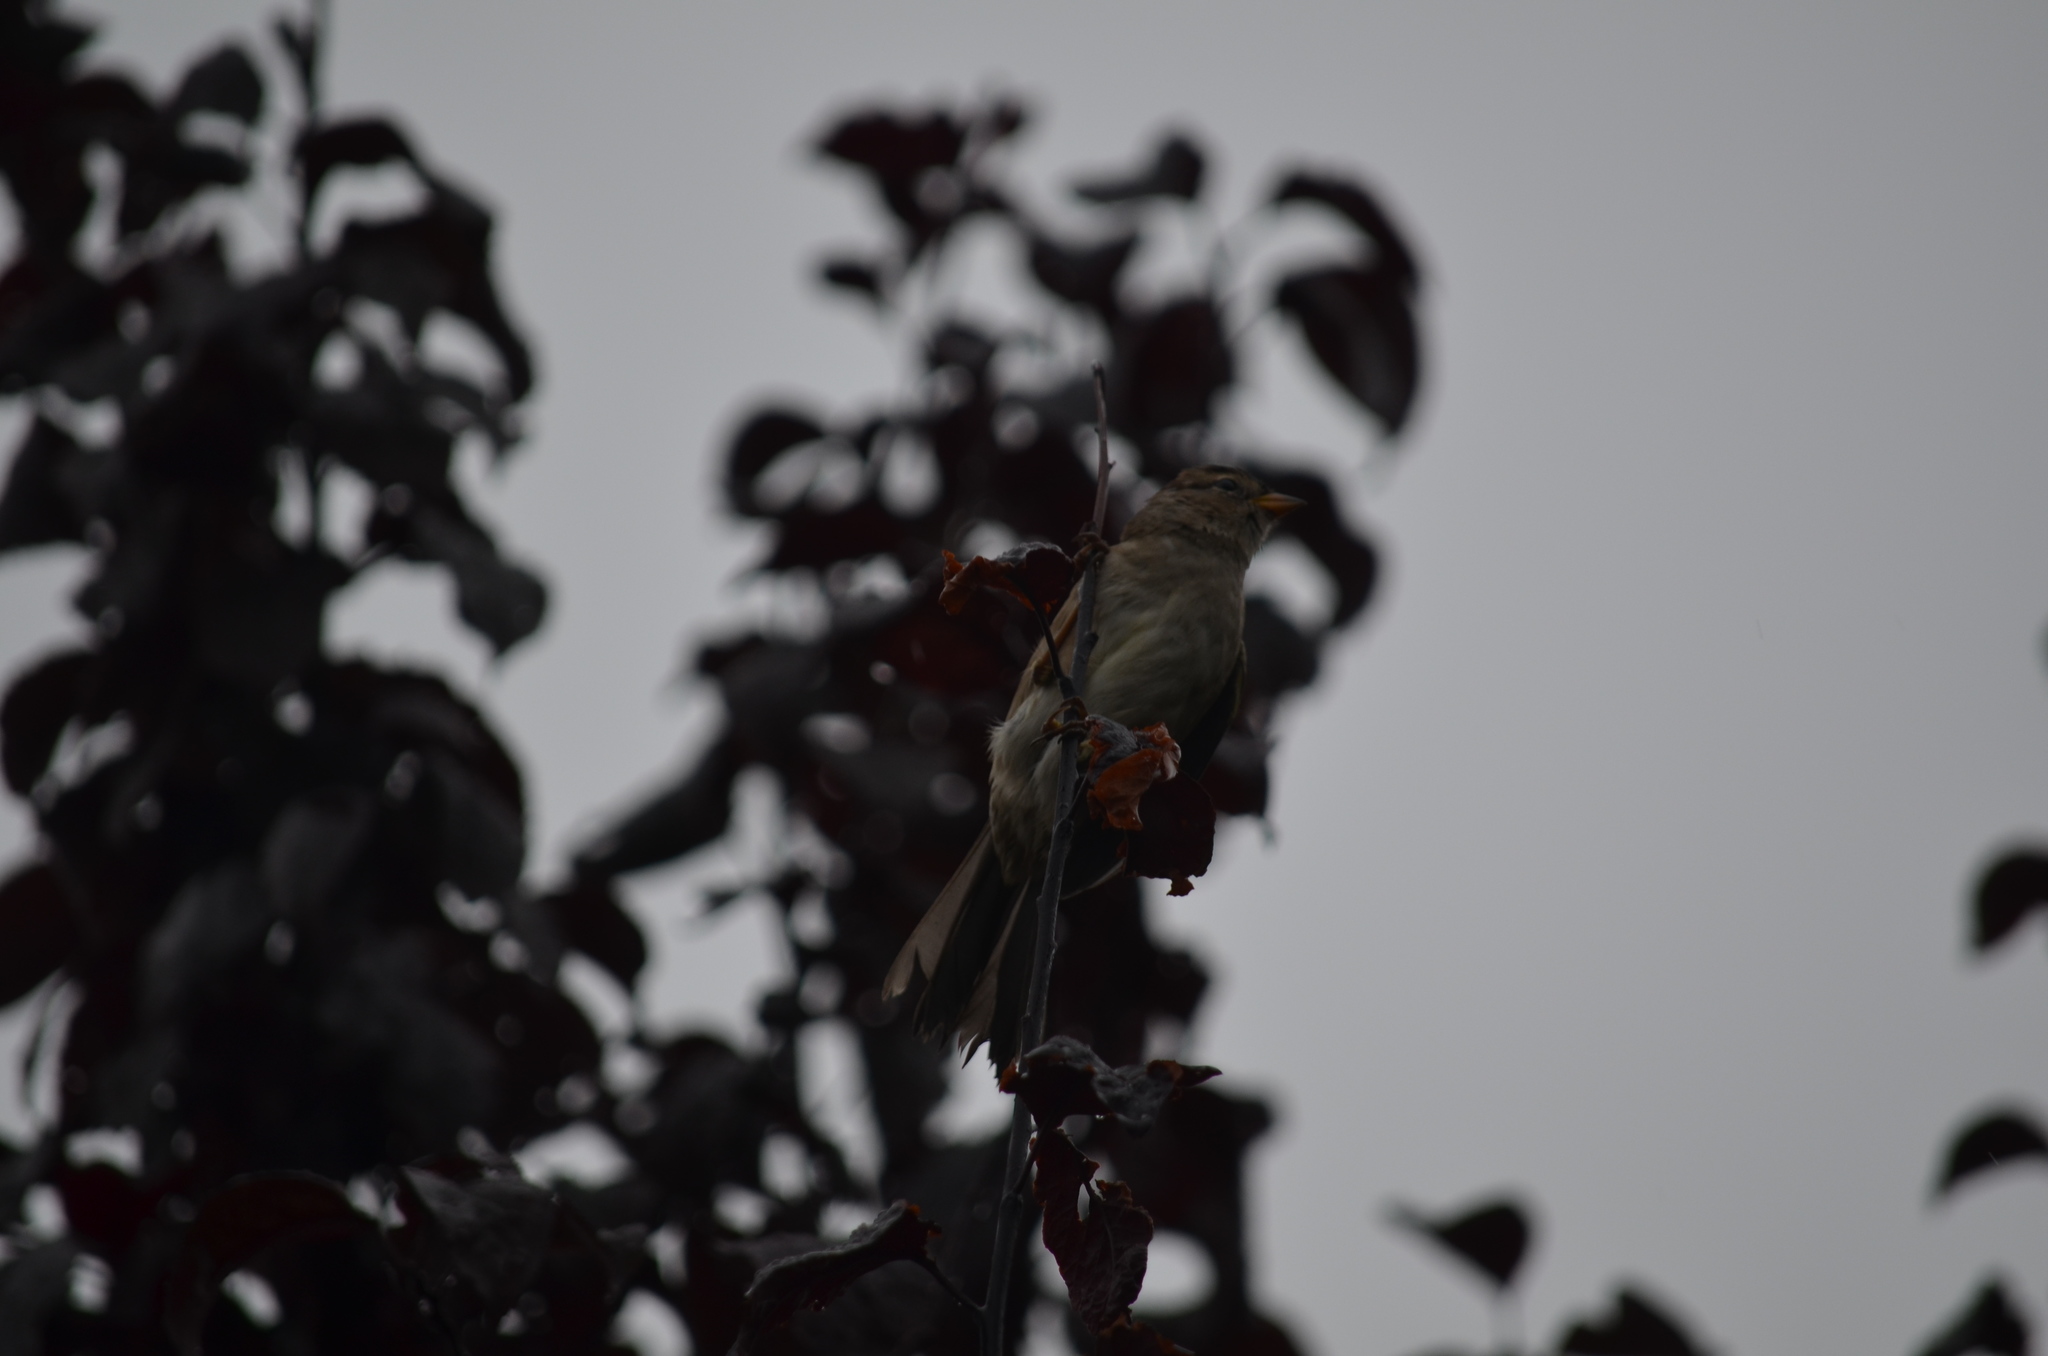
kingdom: Animalia
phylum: Chordata
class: Aves
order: Passeriformes
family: Passerellidae
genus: Zonotrichia
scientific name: Zonotrichia leucophrys
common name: White-crowned sparrow
